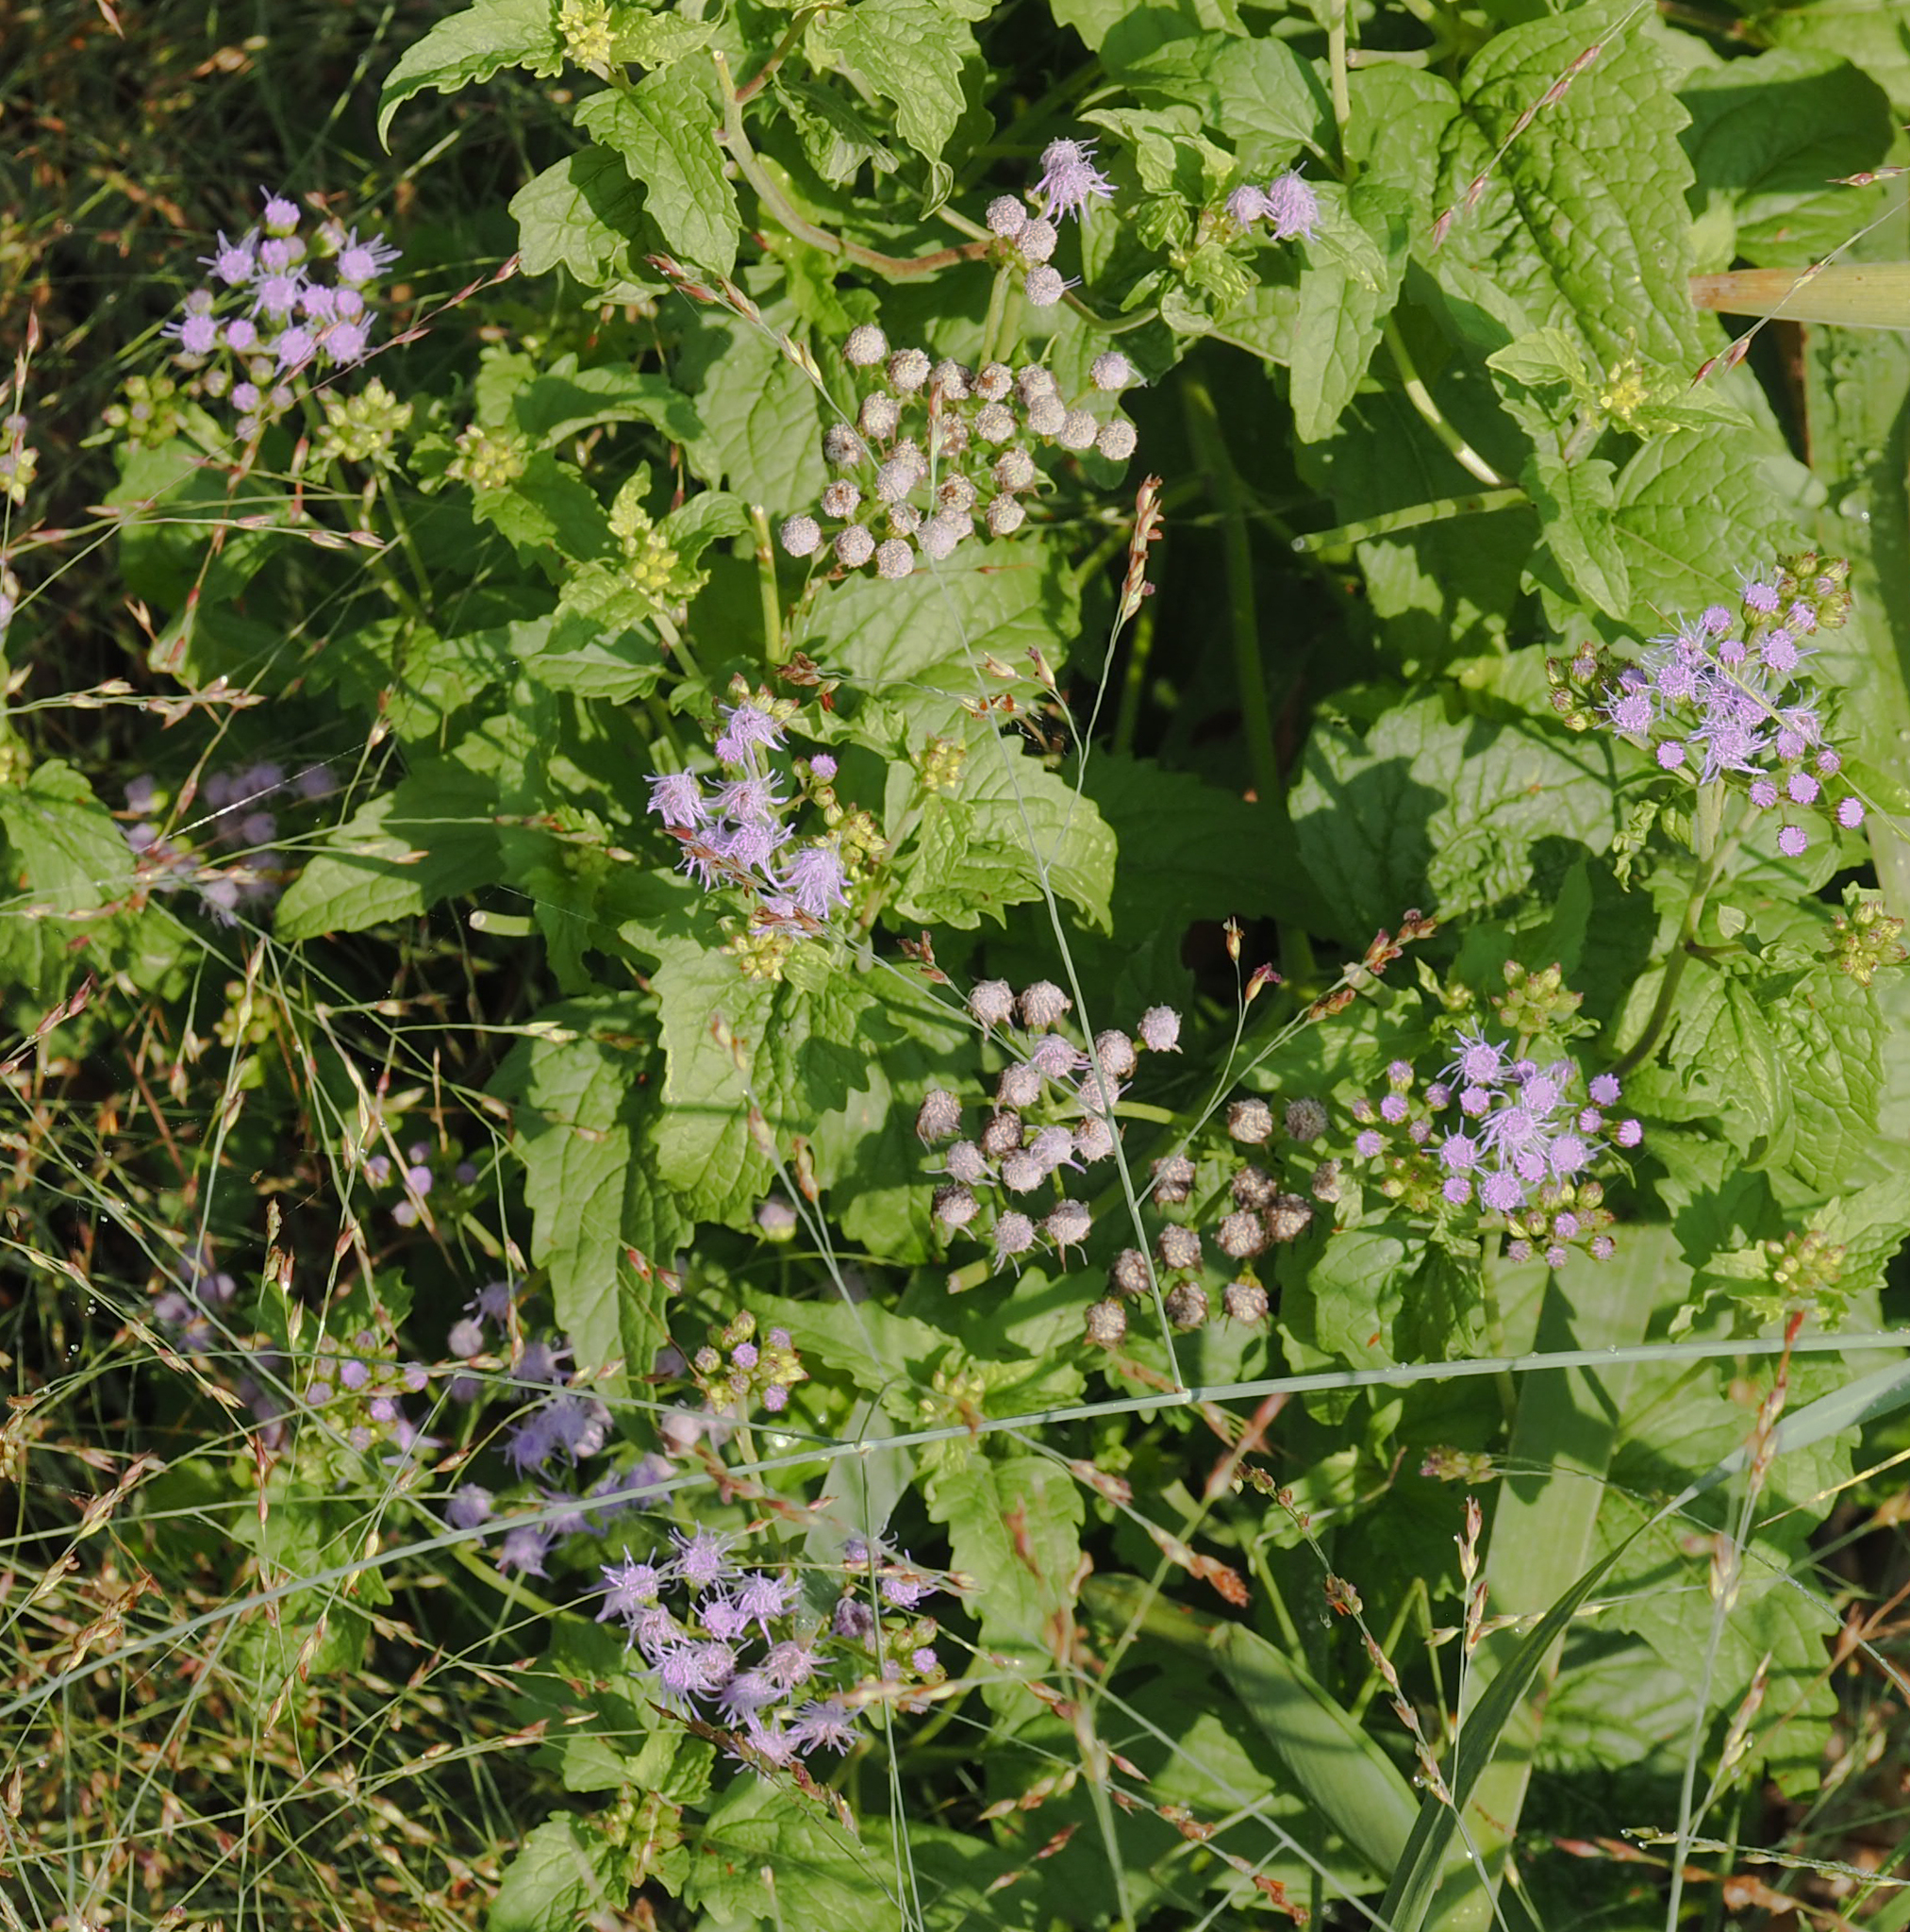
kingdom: Plantae
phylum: Tracheophyta
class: Magnoliopsida
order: Asterales
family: Asteraceae
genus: Conoclinium
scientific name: Conoclinium coelestinum
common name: Blue mistflower
